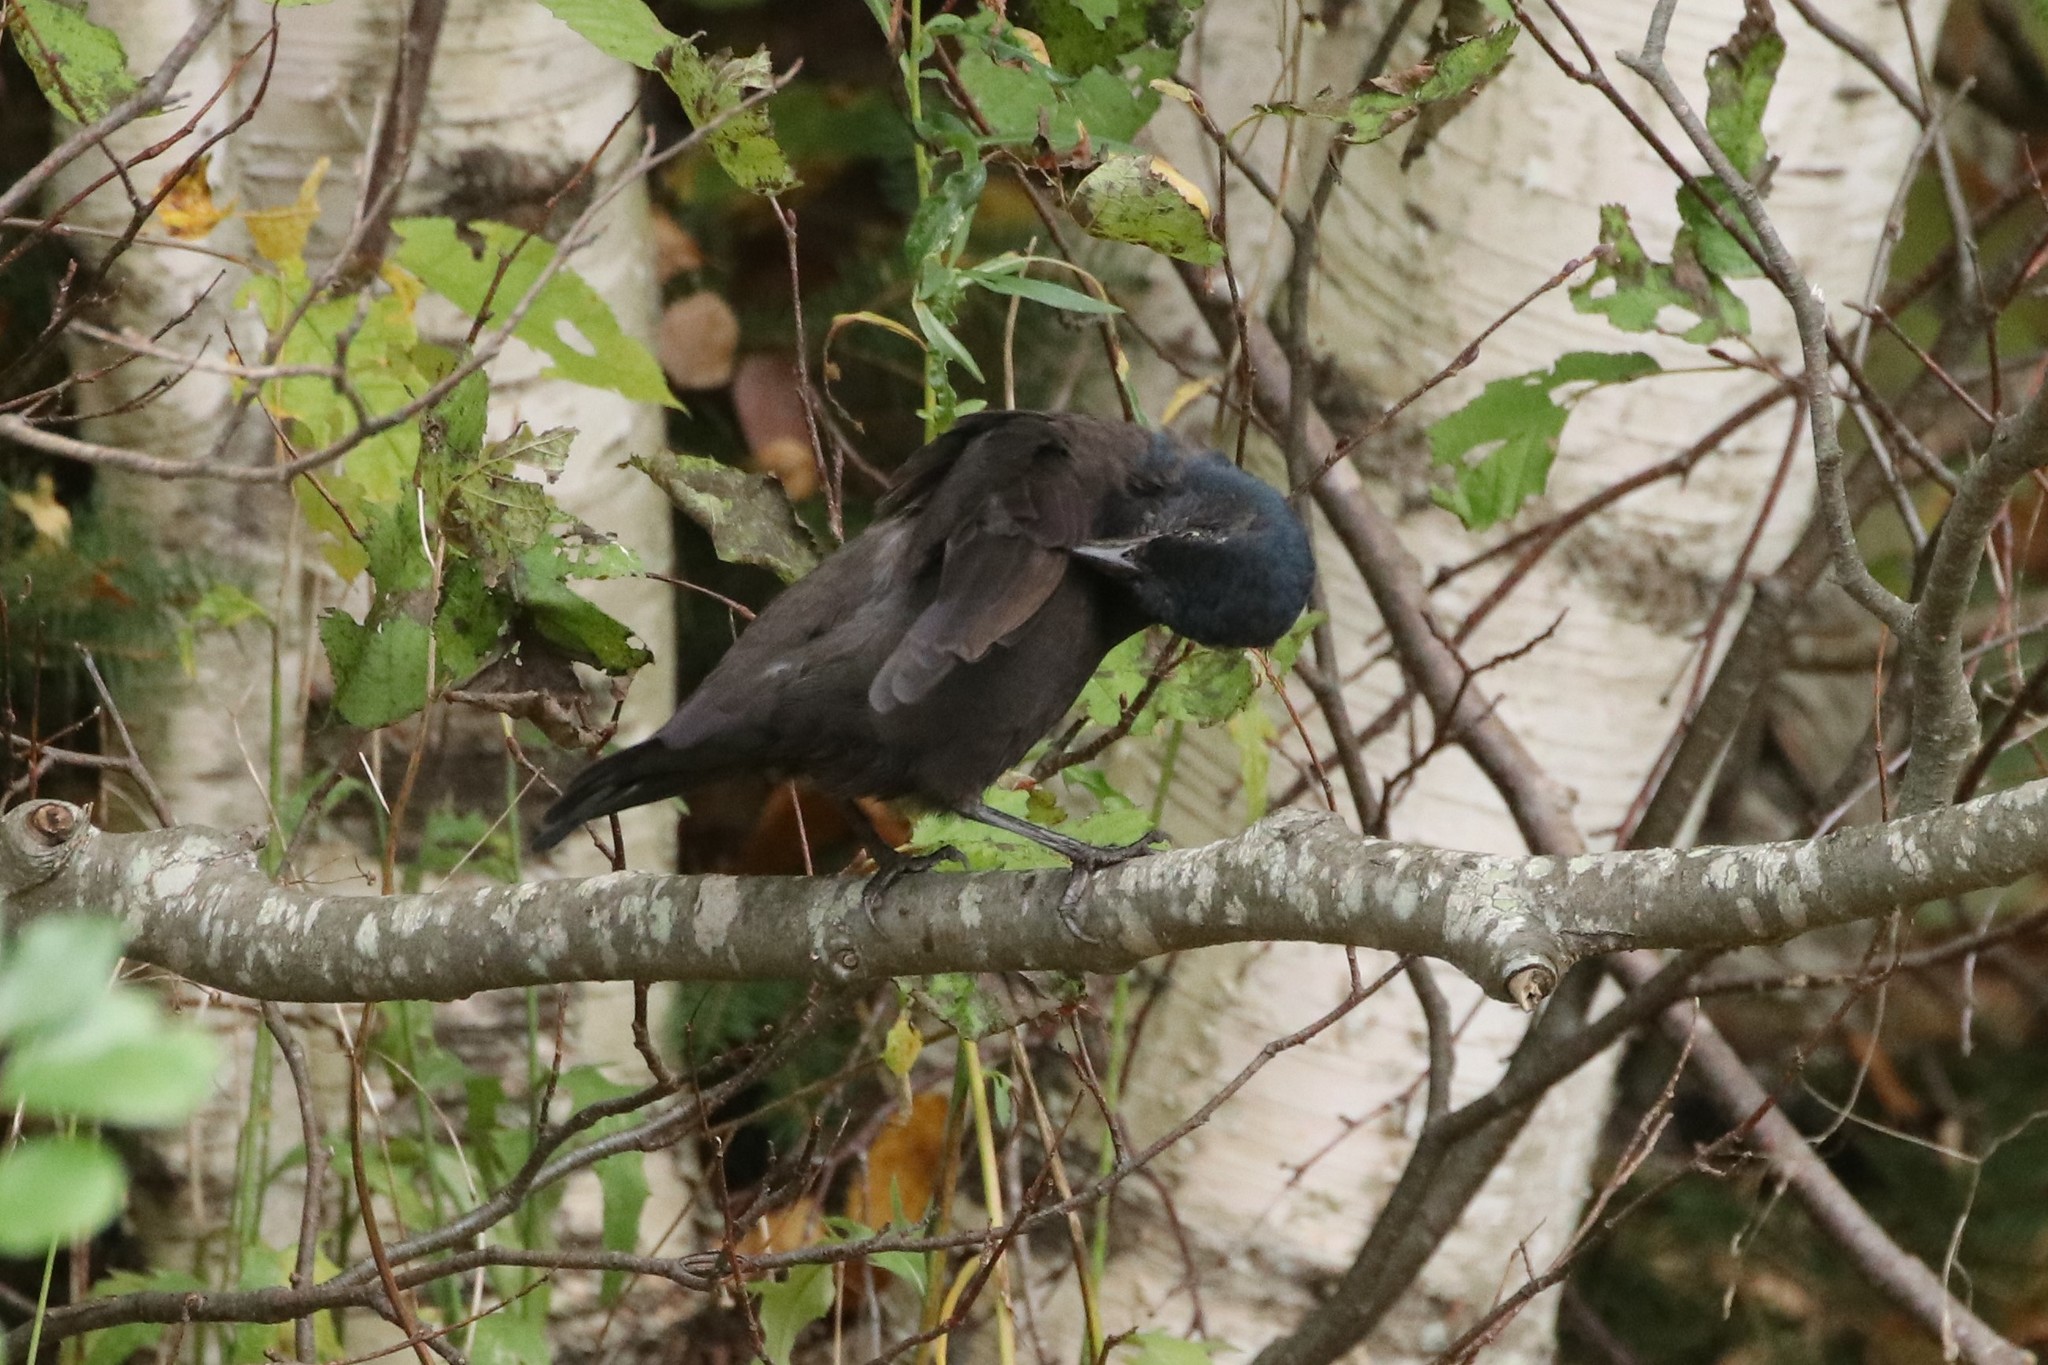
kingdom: Animalia
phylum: Chordata
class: Aves
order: Passeriformes
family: Icteridae
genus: Quiscalus
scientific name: Quiscalus quiscula
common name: Common grackle
